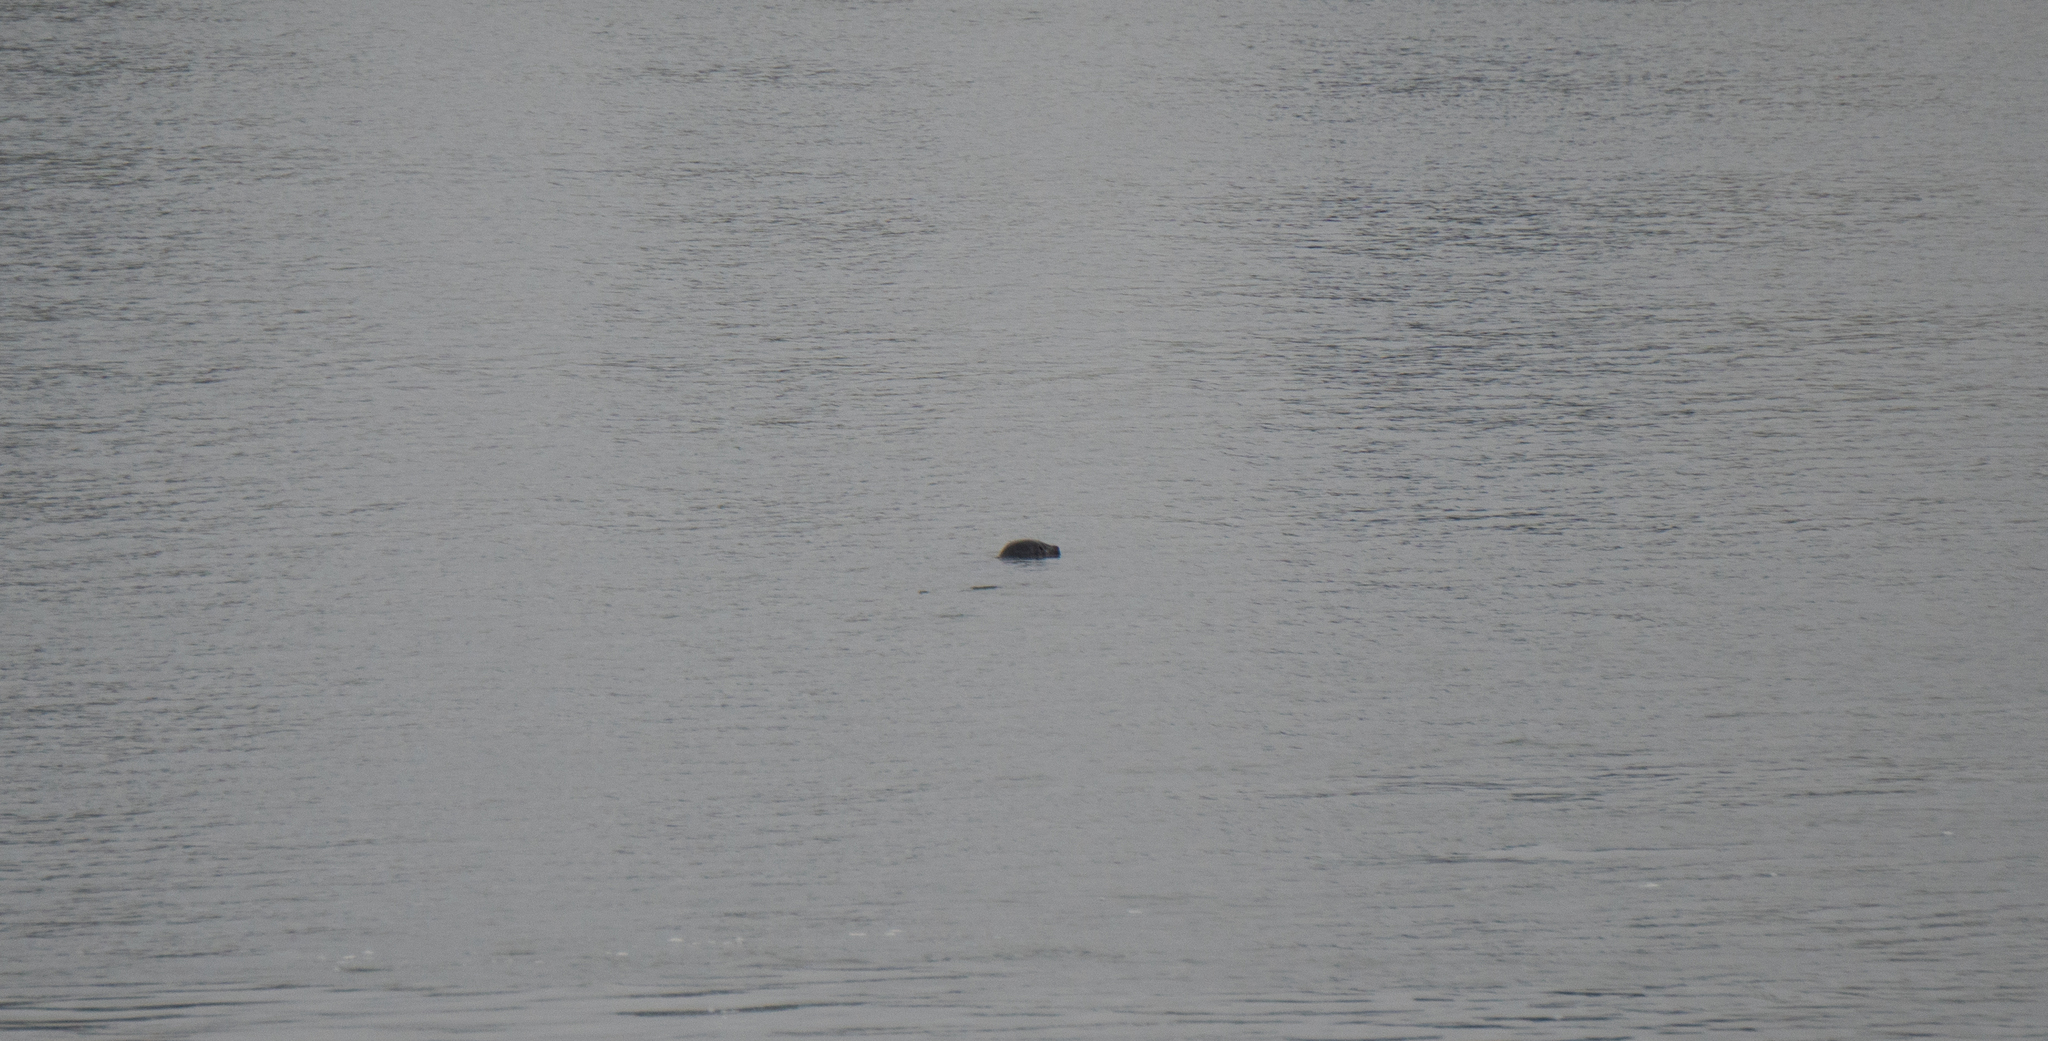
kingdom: Animalia
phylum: Chordata
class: Mammalia
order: Carnivora
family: Phocidae
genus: Phoca
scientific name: Phoca vitulina
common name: Harbor seal
